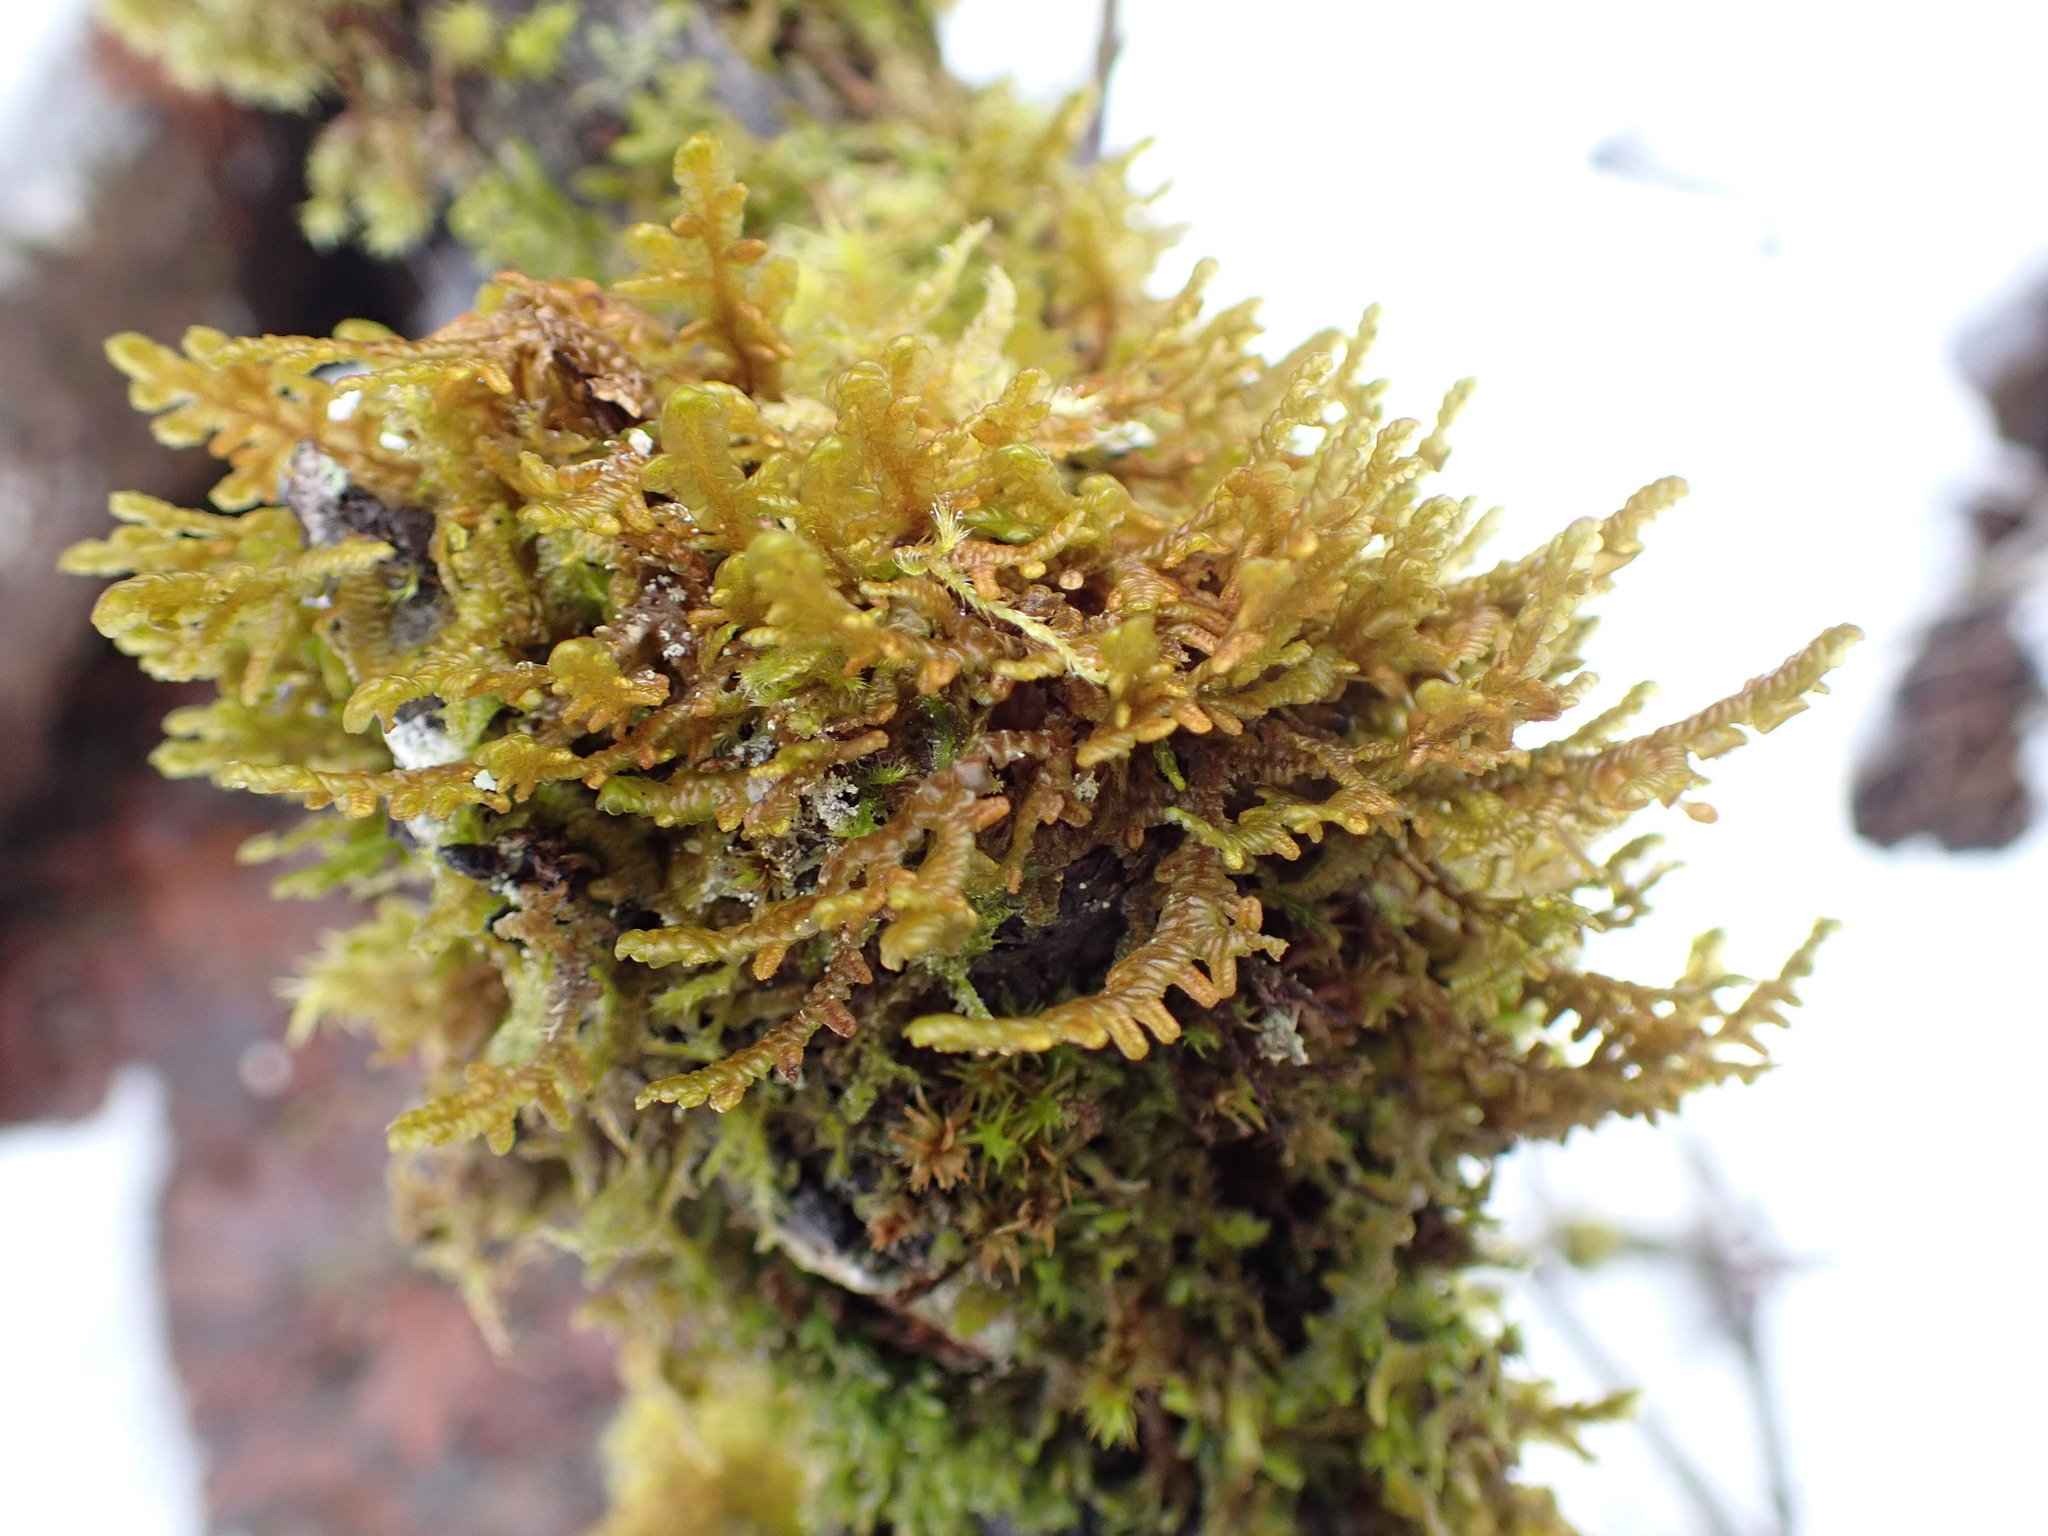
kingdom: Plantae
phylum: Marchantiophyta
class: Jungermanniopsida
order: Porellales
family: Porellaceae
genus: Porella
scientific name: Porella navicularis
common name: Tree ruffle liverwort
